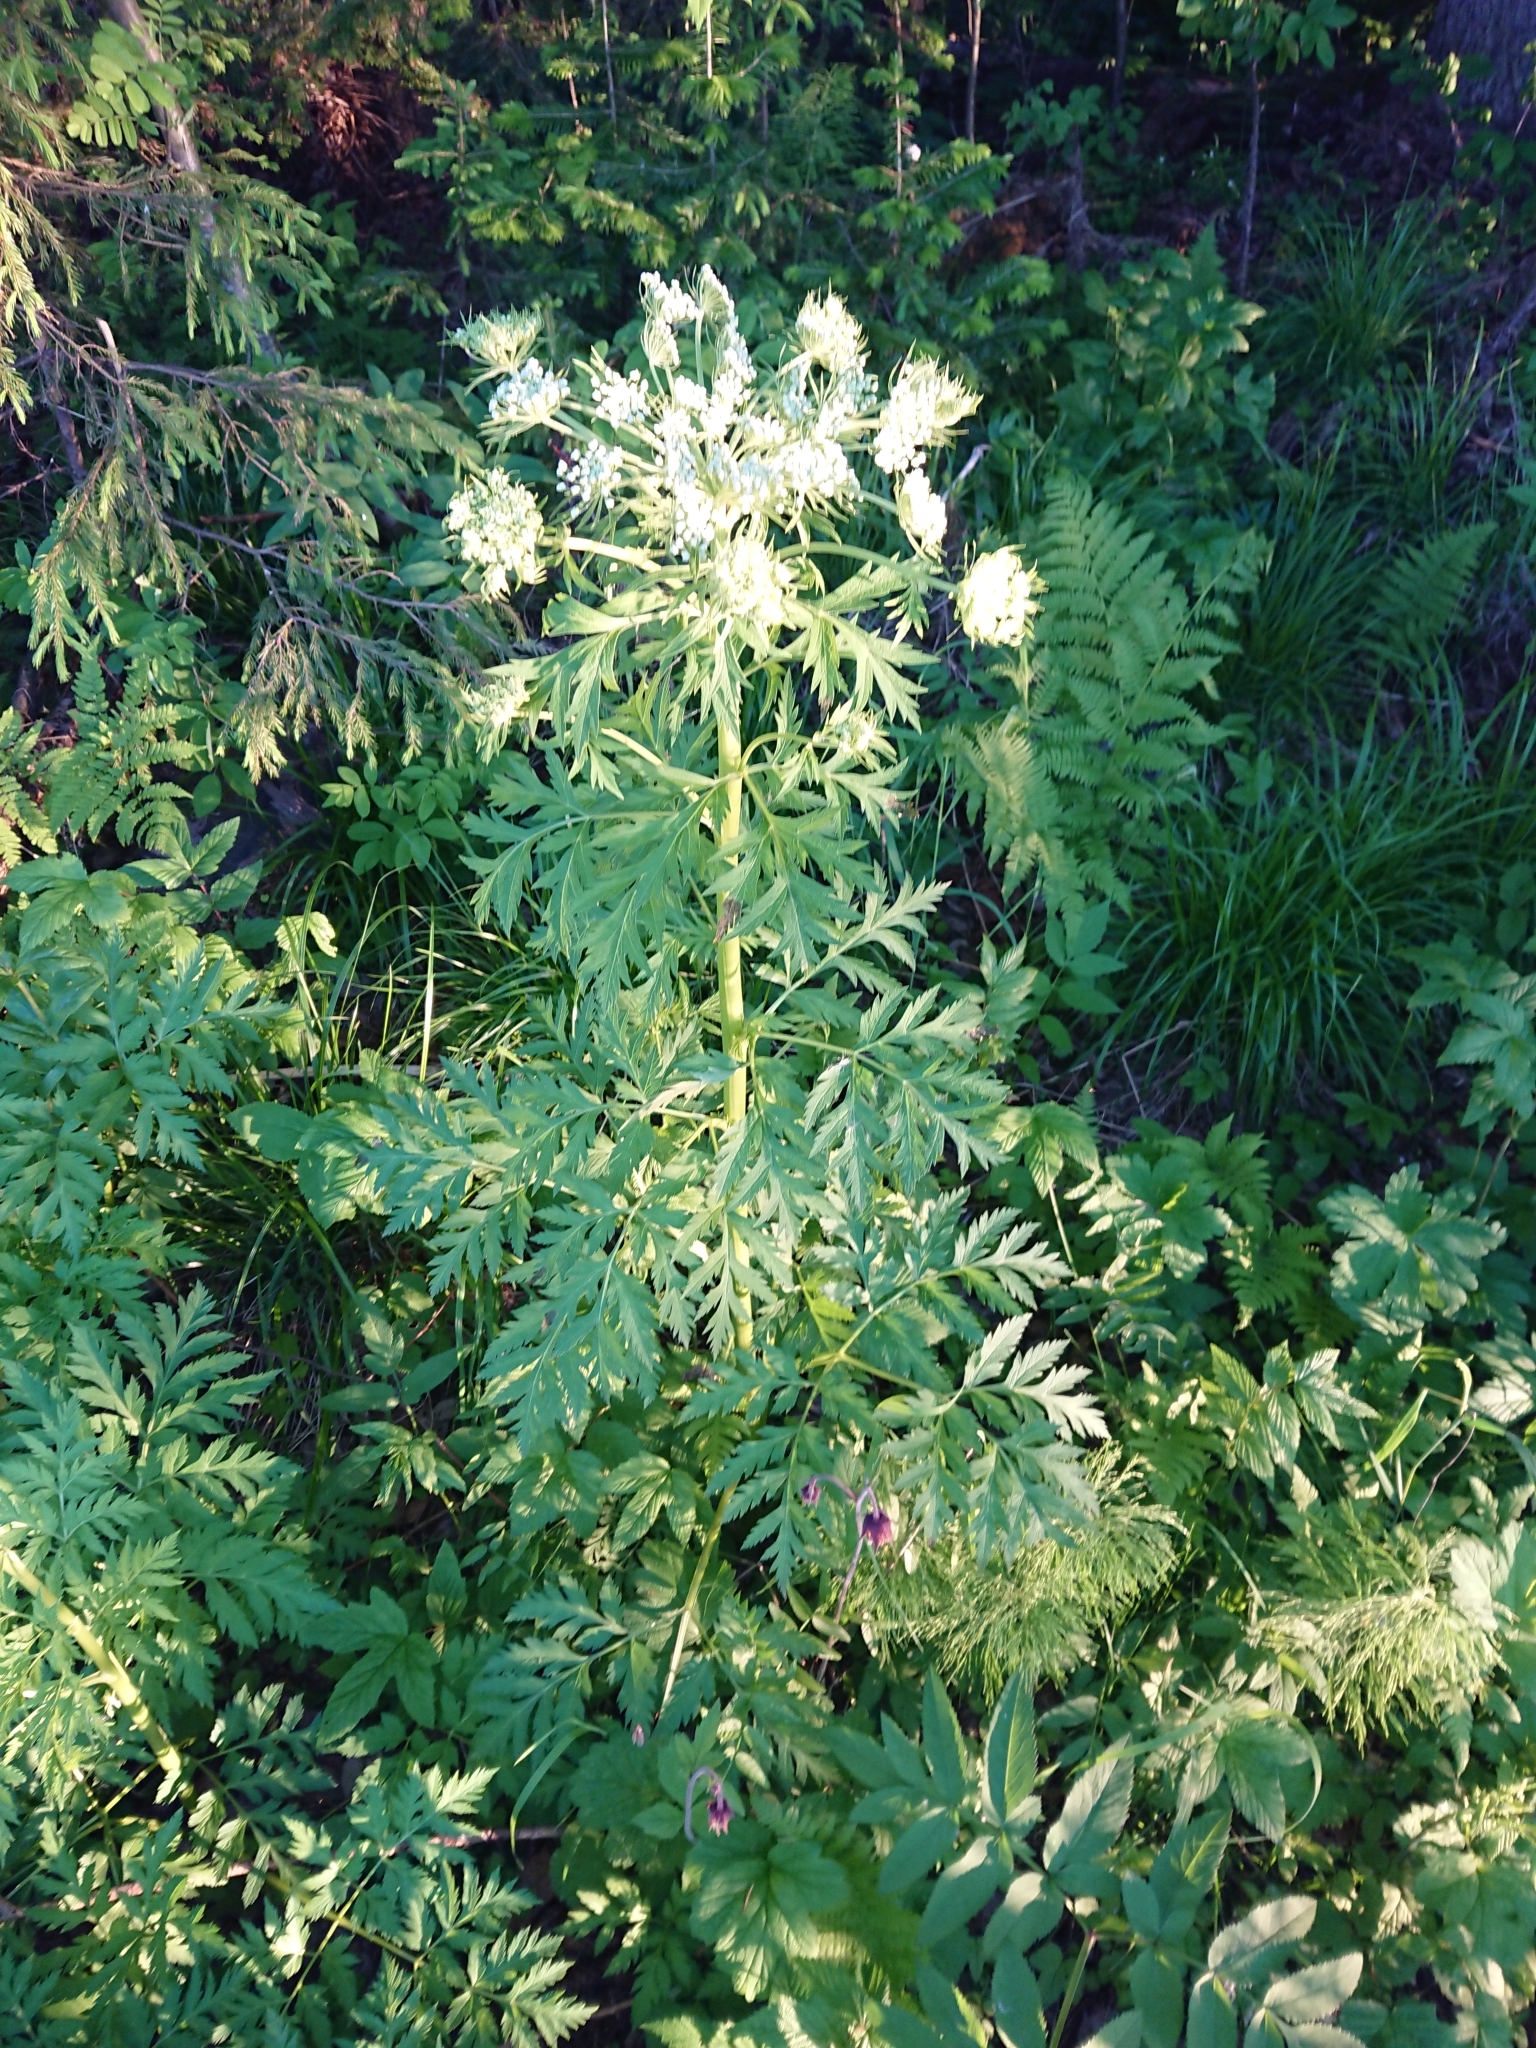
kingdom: Plantae
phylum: Tracheophyta
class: Magnoliopsida
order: Apiales
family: Apiaceae
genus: Pleurospermum
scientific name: Pleurospermum uralense
